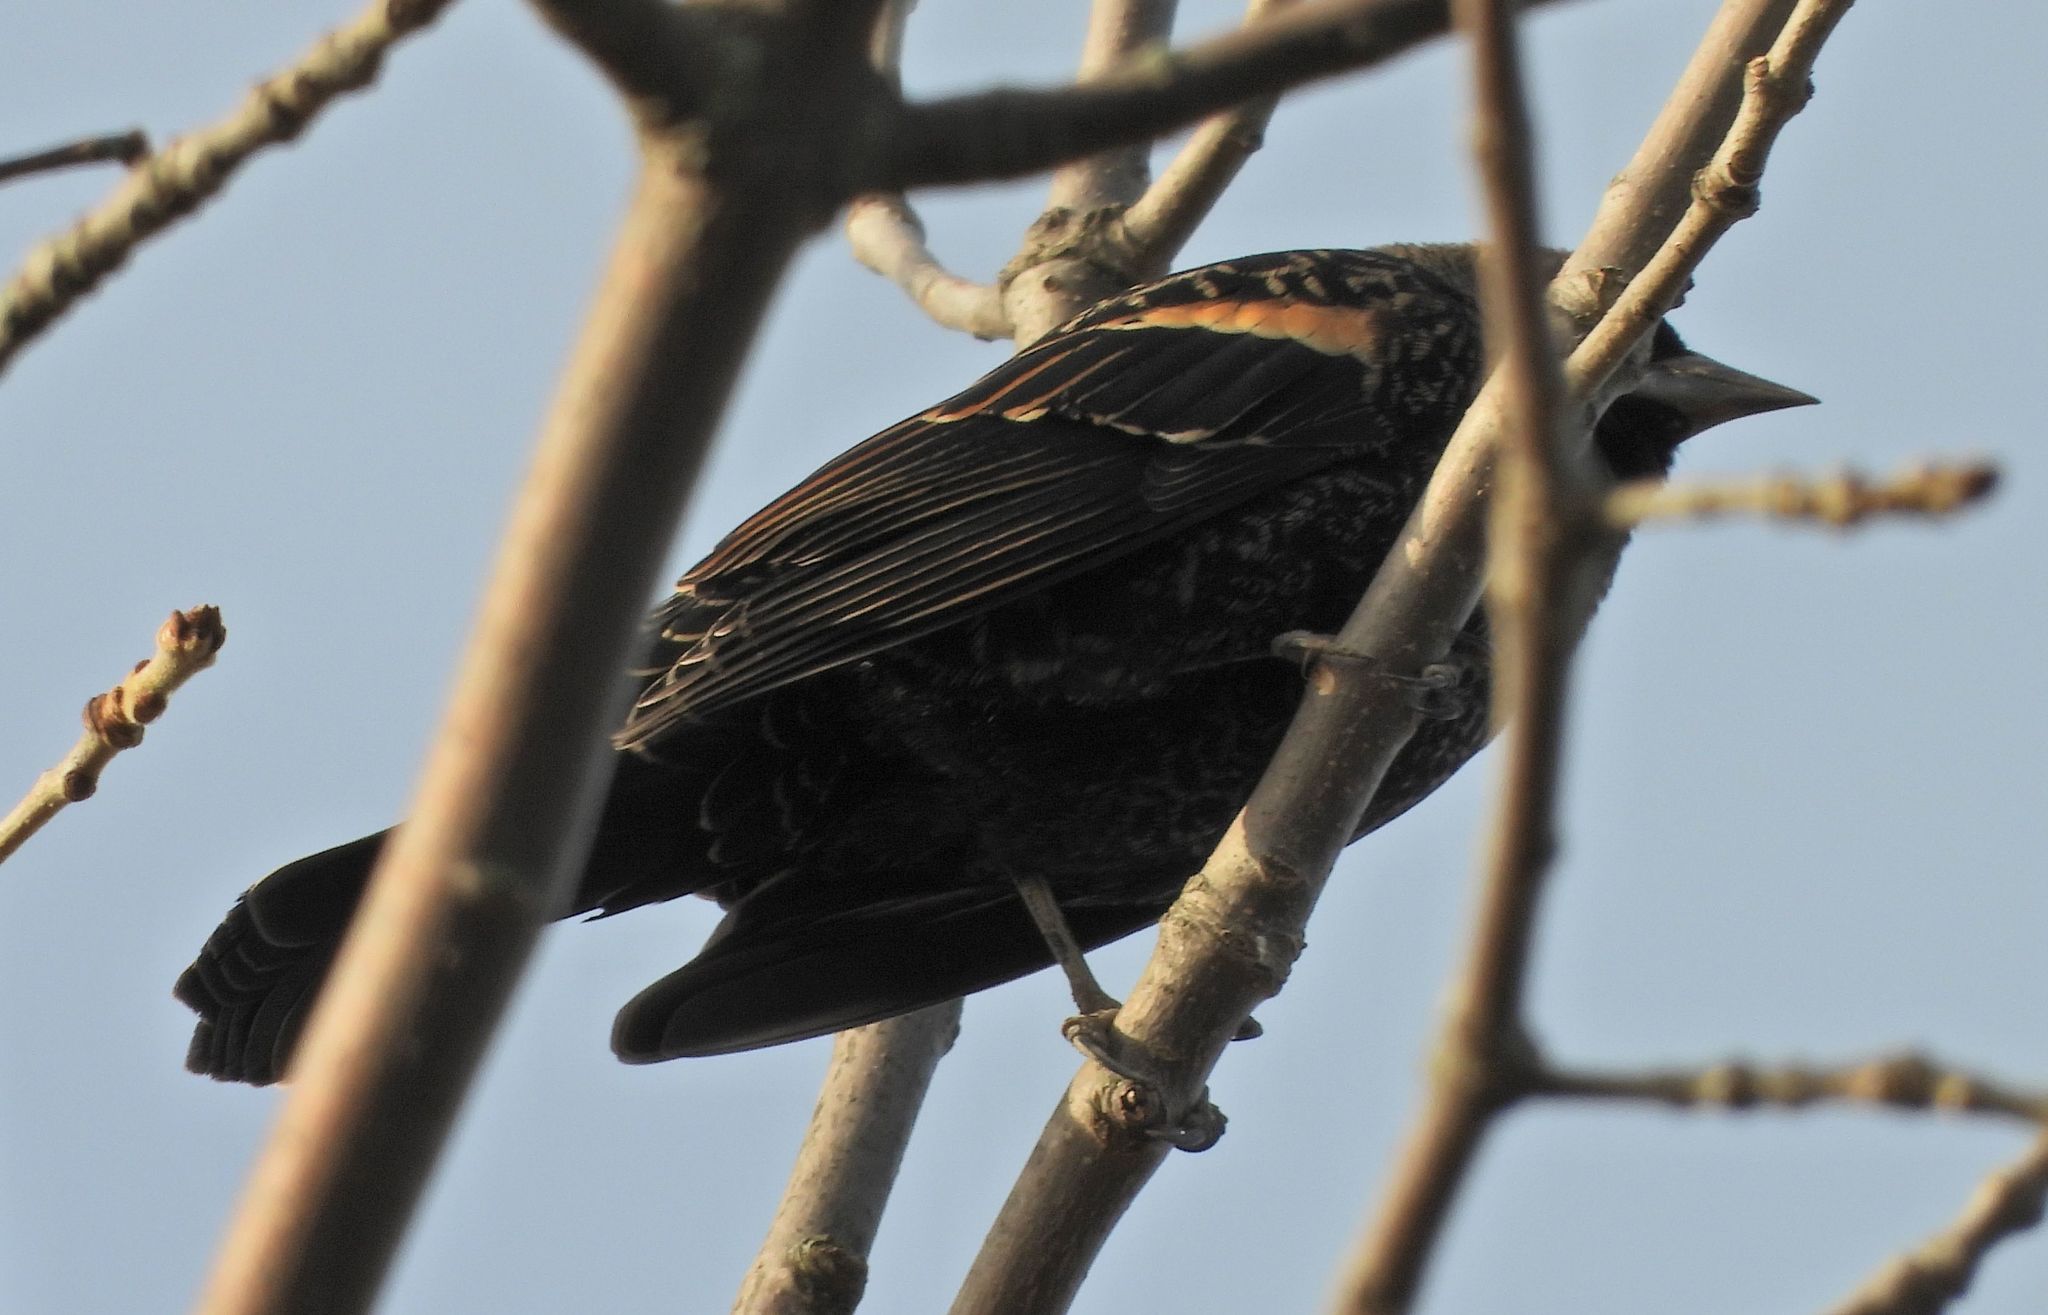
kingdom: Animalia
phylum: Chordata
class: Aves
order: Passeriformes
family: Icteridae
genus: Agelaius
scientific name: Agelaius phoeniceus
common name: Red-winged blackbird
